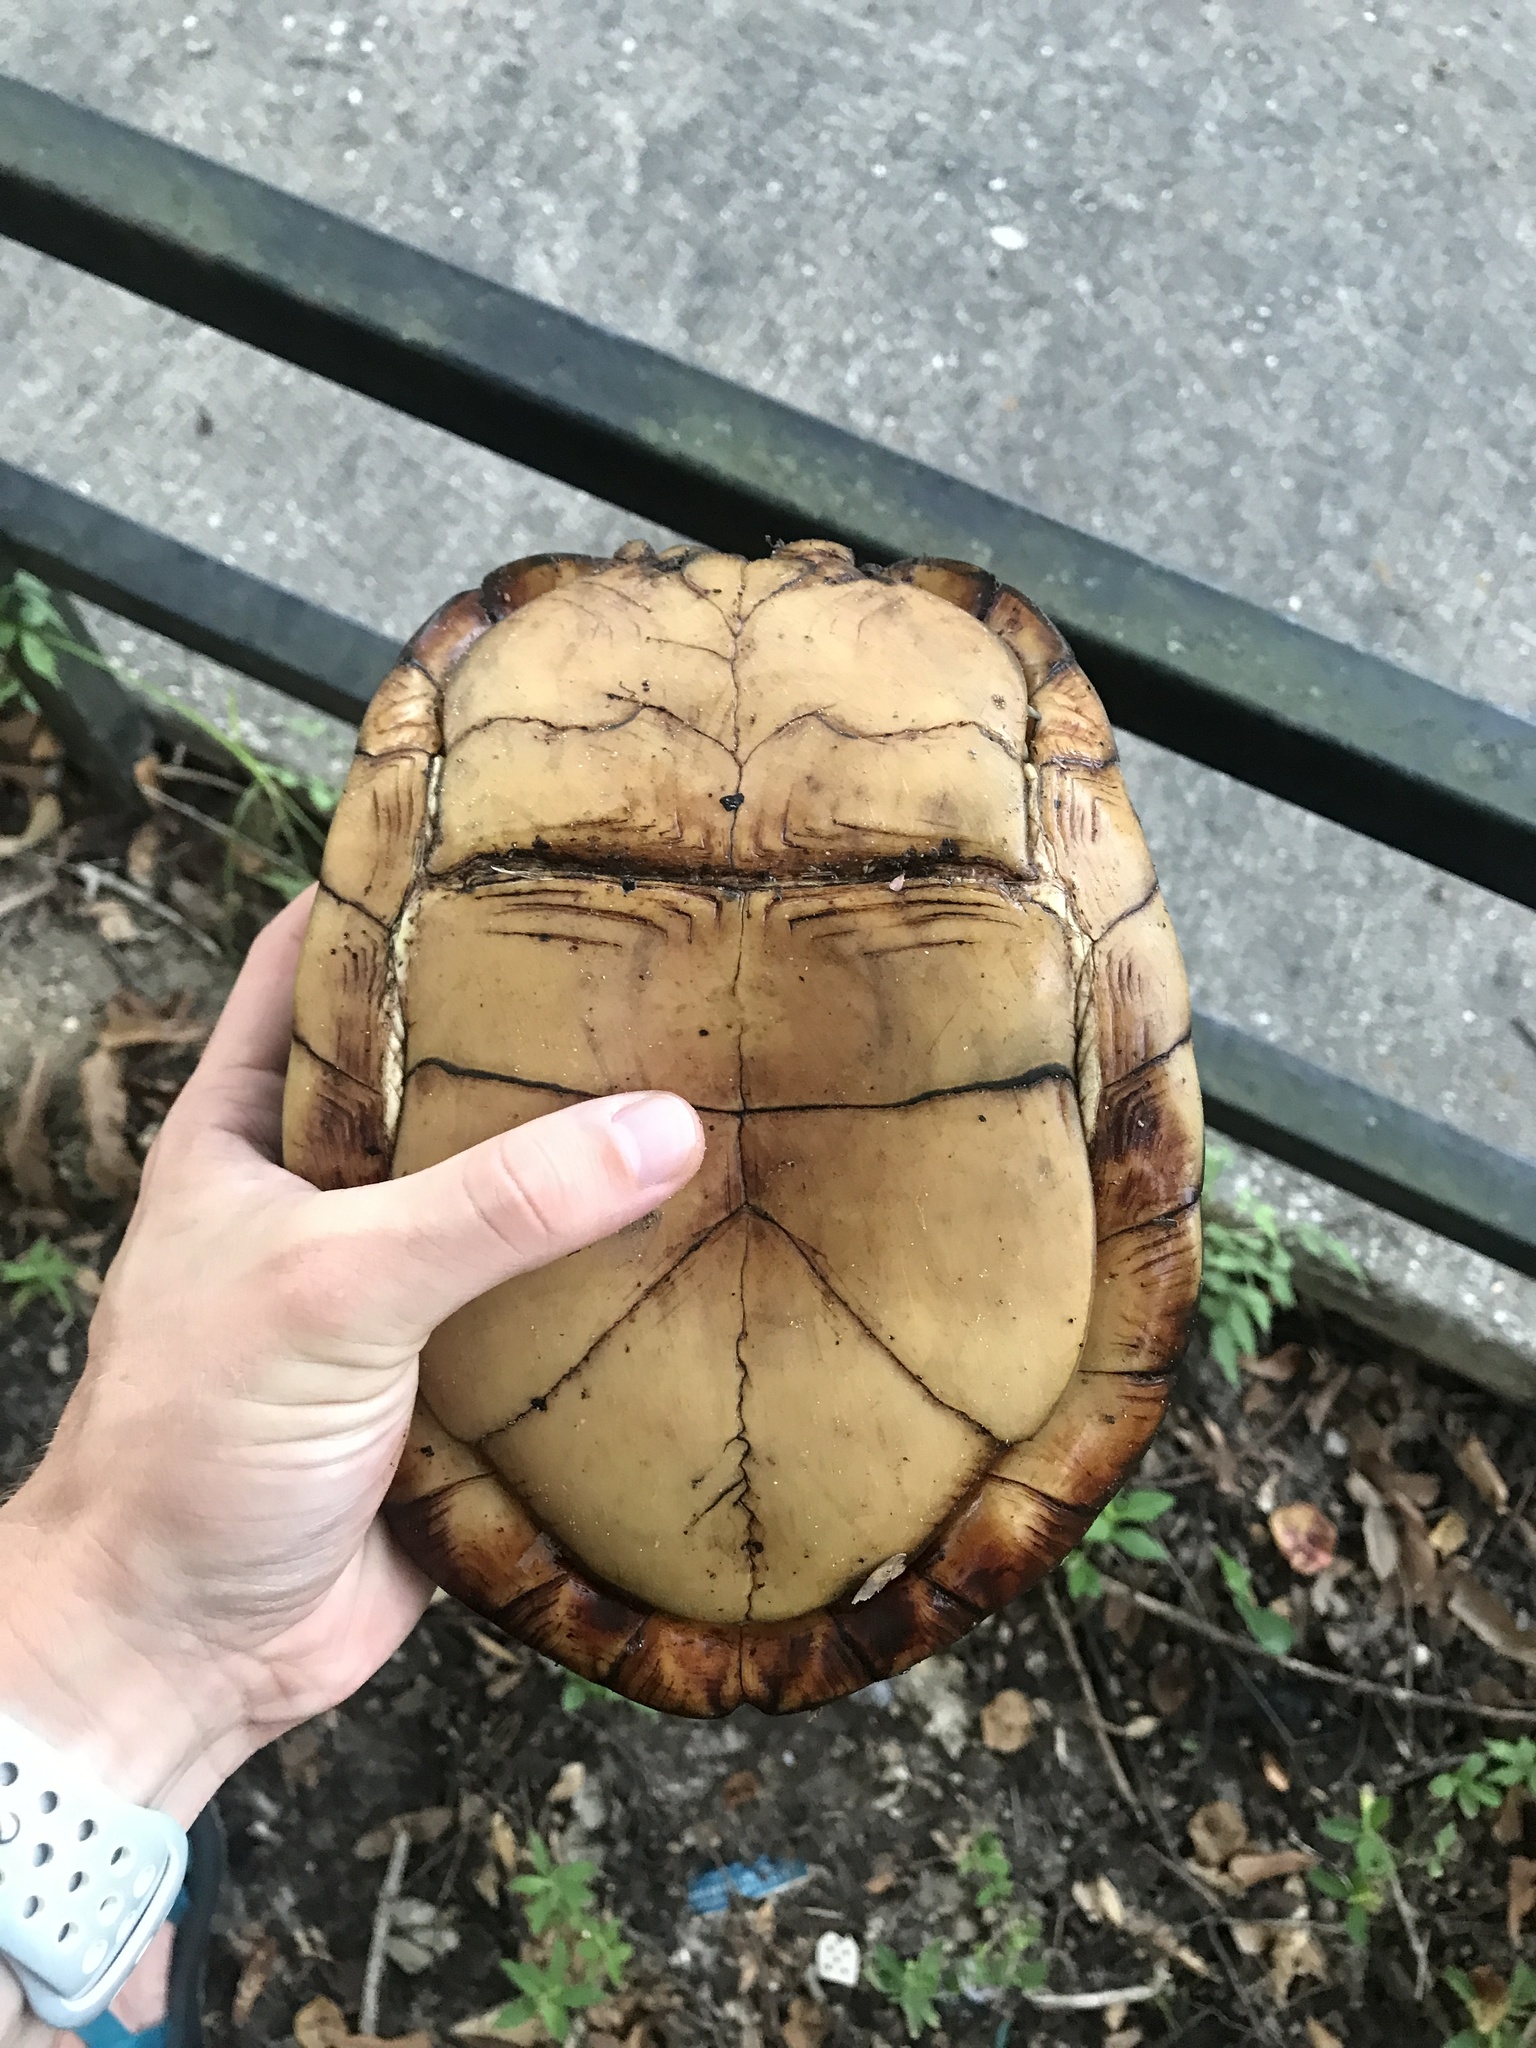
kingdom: Animalia
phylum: Chordata
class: Testudines
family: Emydidae
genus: Terrapene
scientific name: Terrapene carolina
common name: Common box turtle
